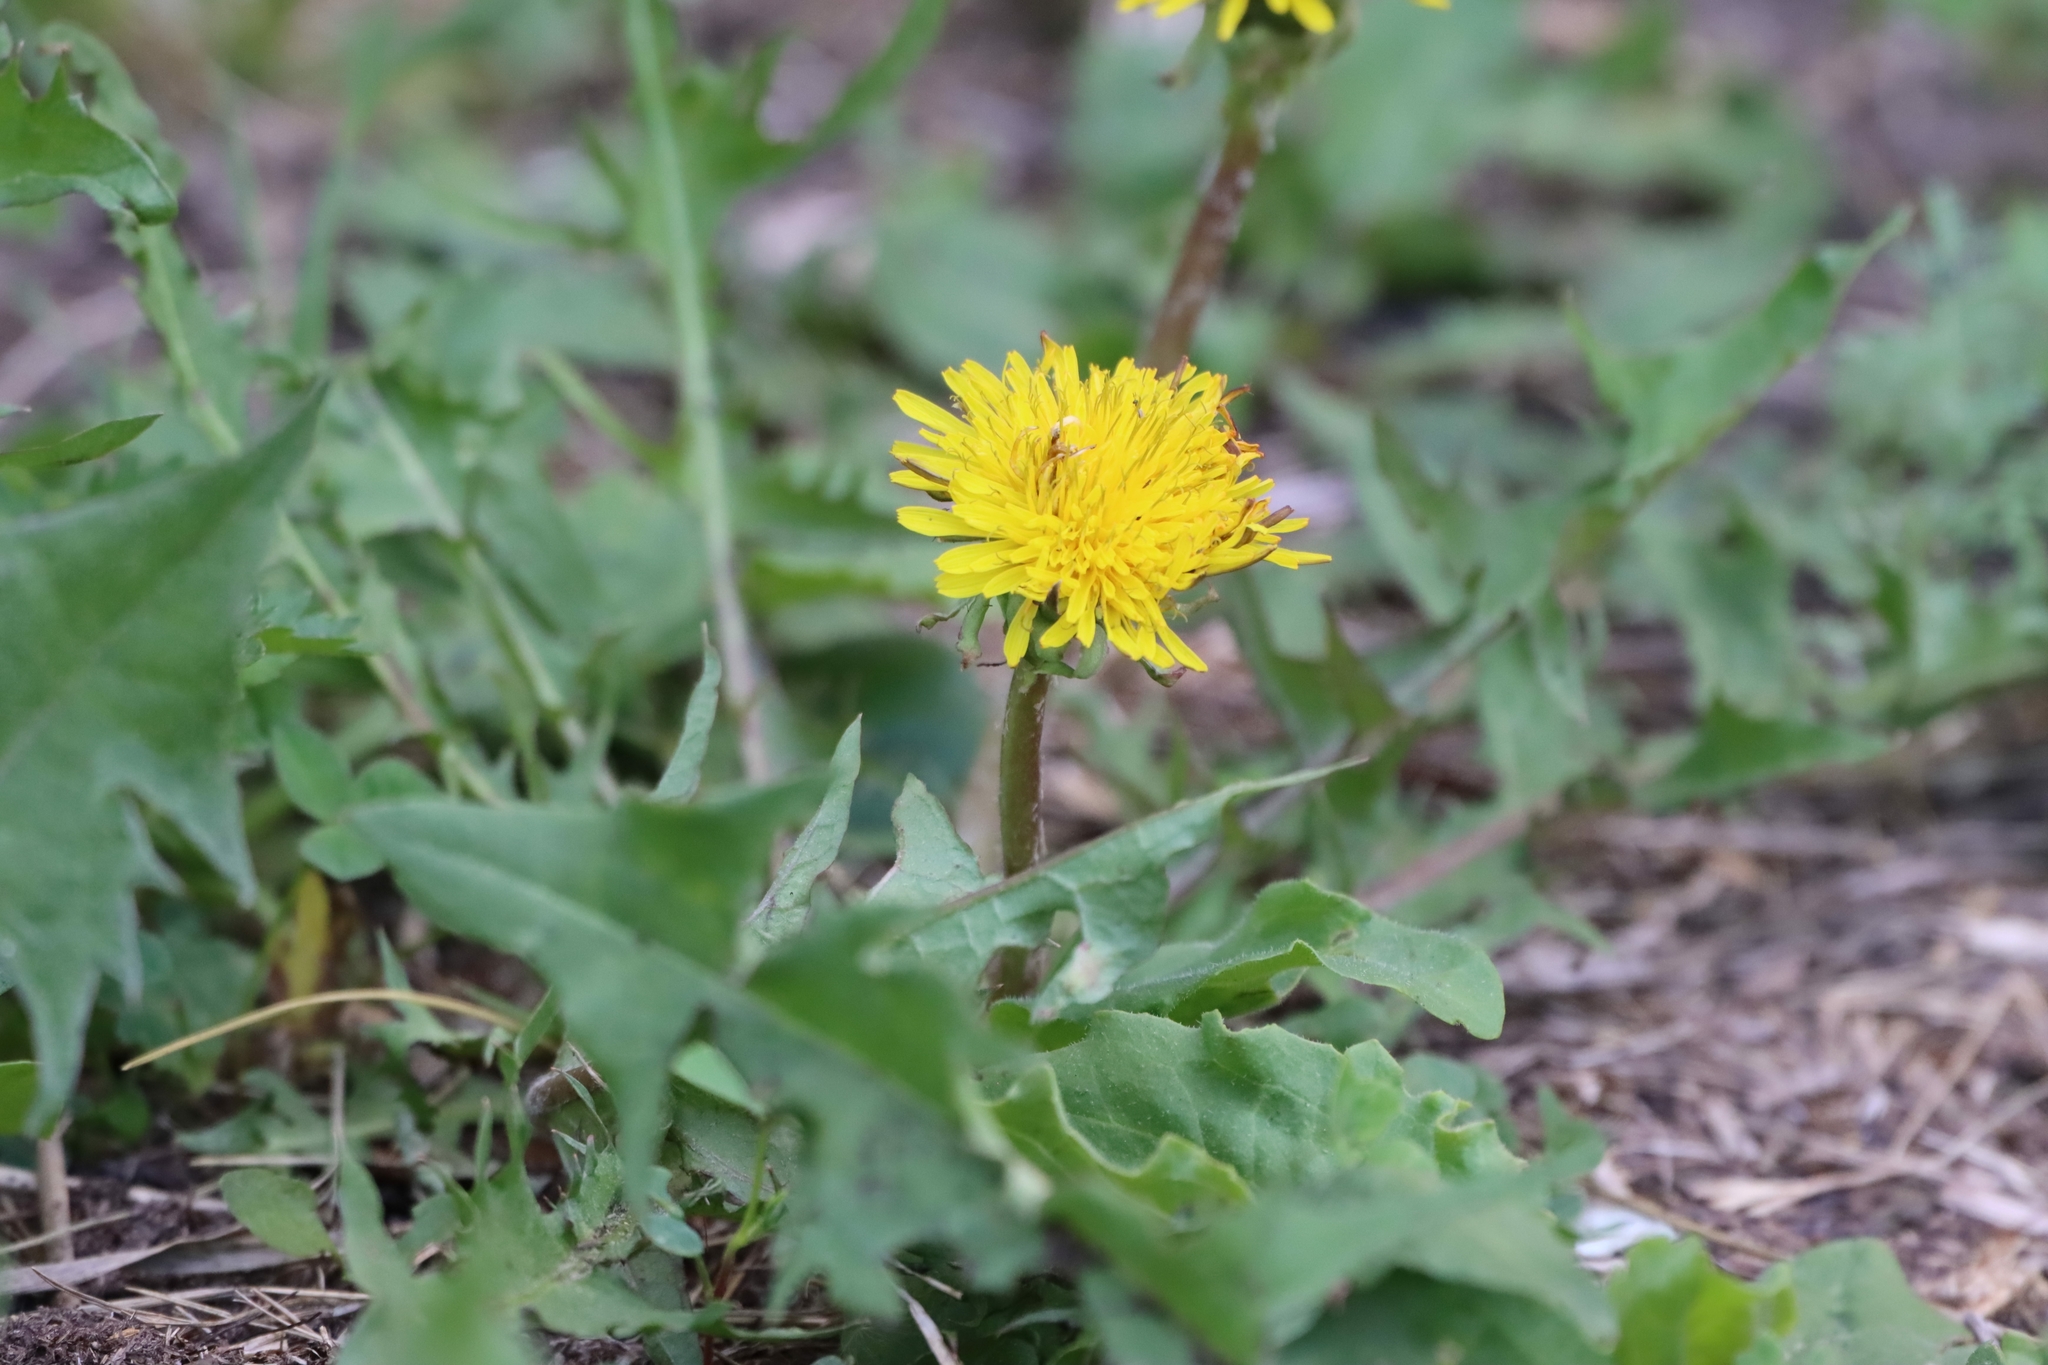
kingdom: Plantae
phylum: Tracheophyta
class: Magnoliopsida
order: Asterales
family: Asteraceae
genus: Taraxacum
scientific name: Taraxacum officinale
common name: Common dandelion
